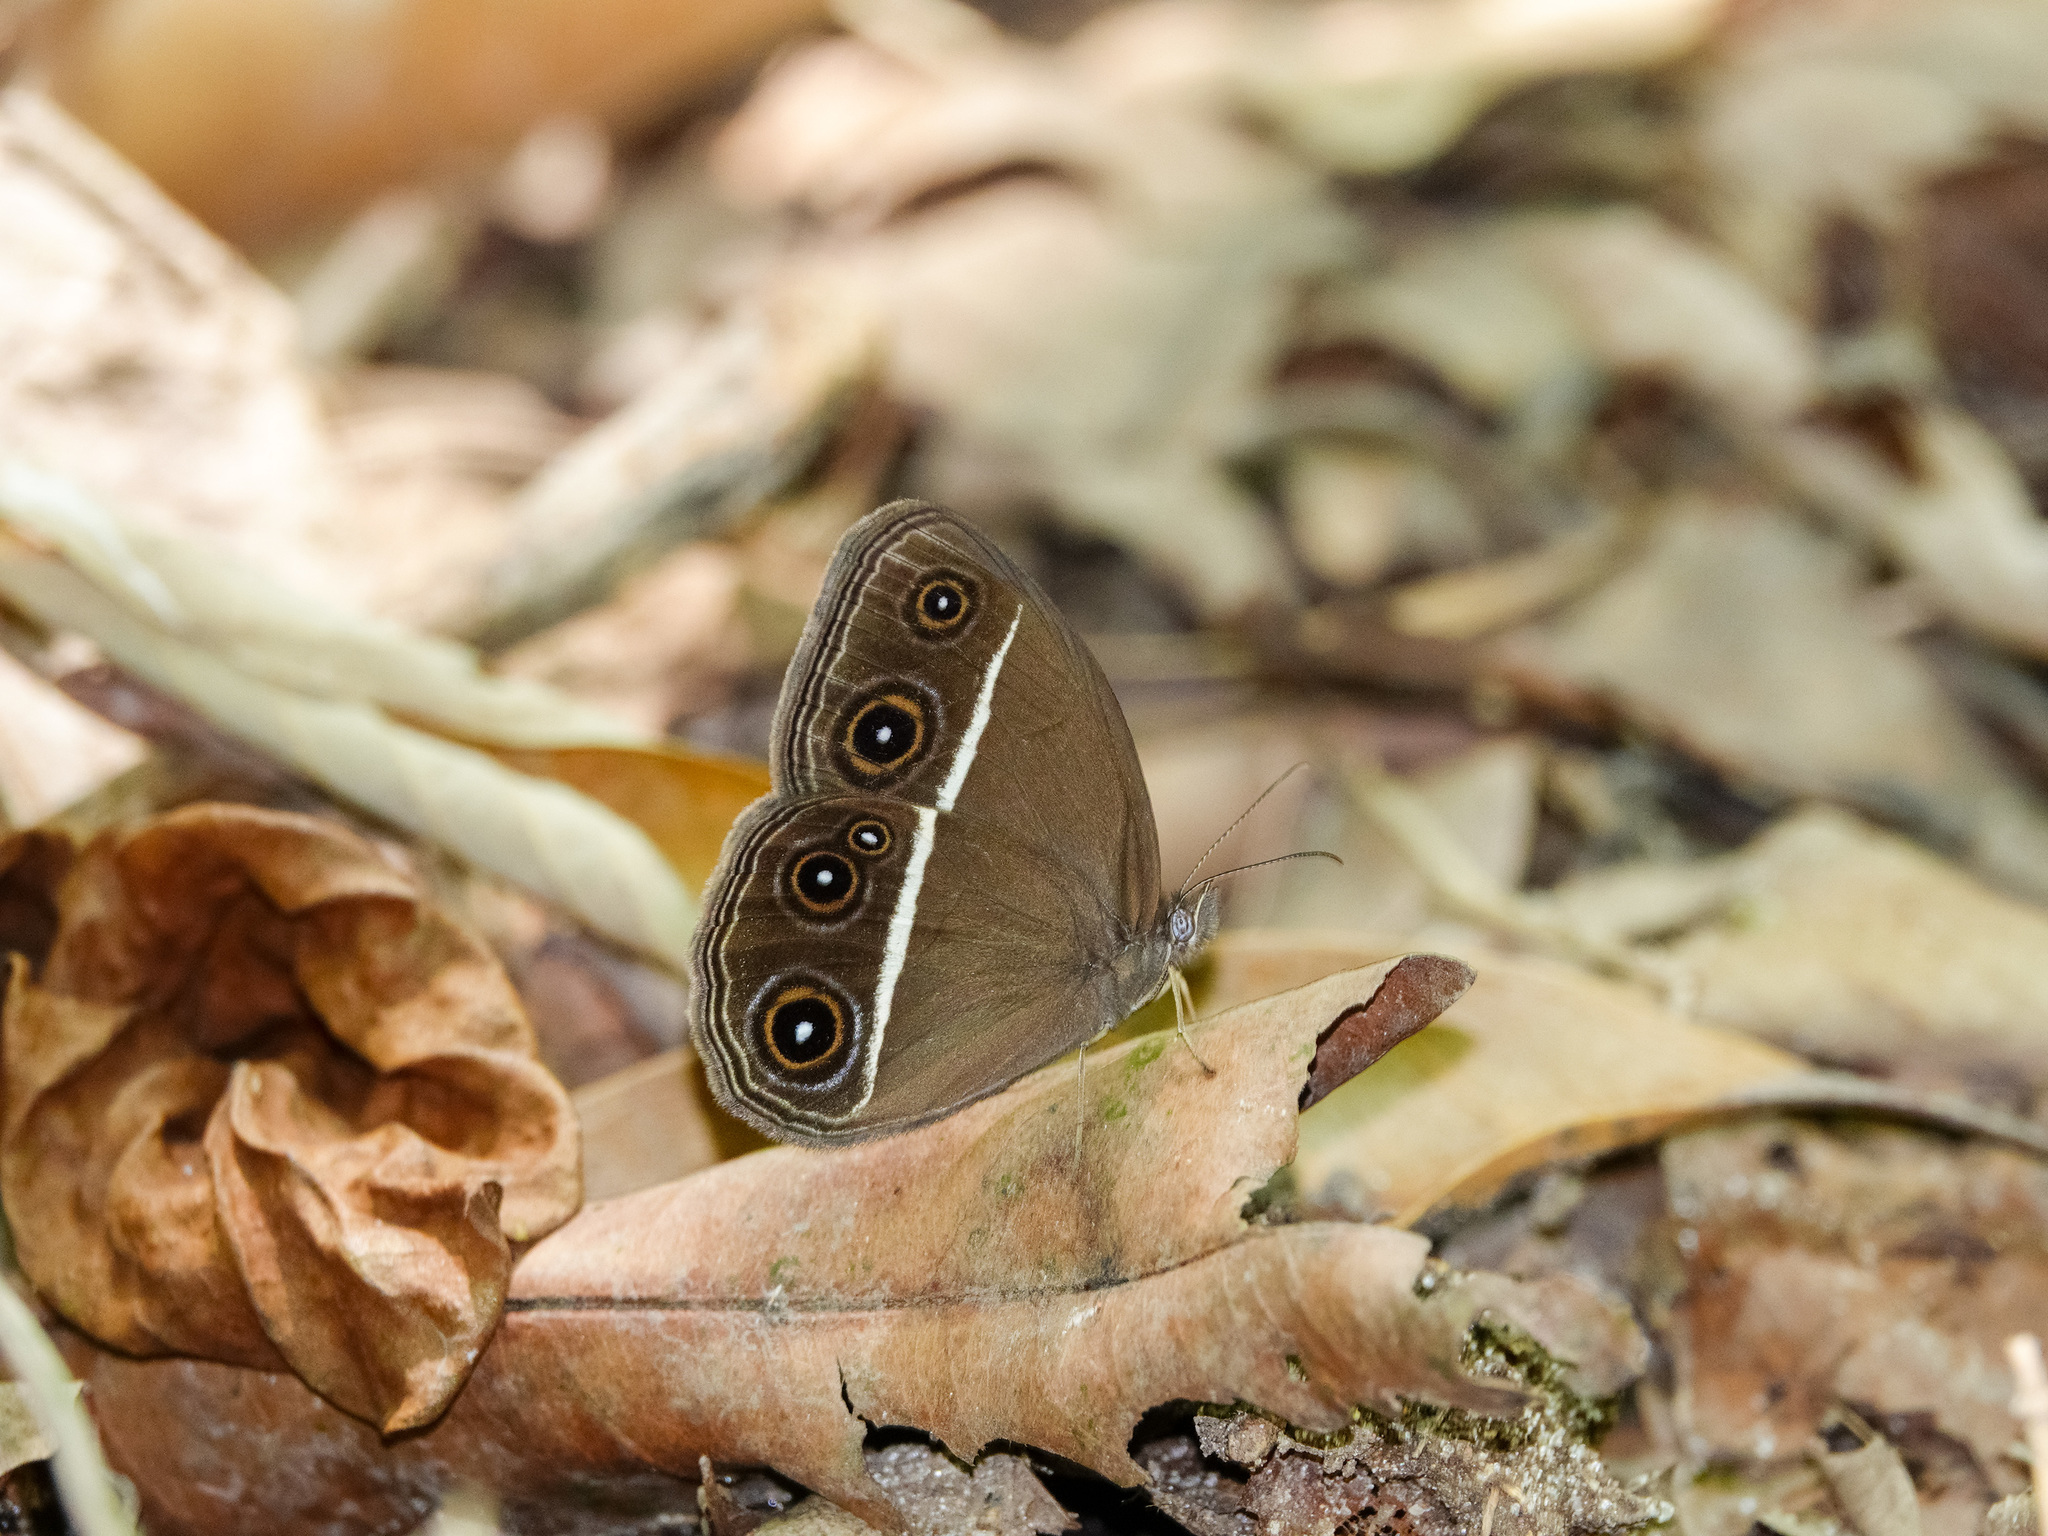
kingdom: Animalia
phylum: Arthropoda
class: Insecta
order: Lepidoptera
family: Nymphalidae
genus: Orsotriaena
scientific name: Orsotriaena medus
